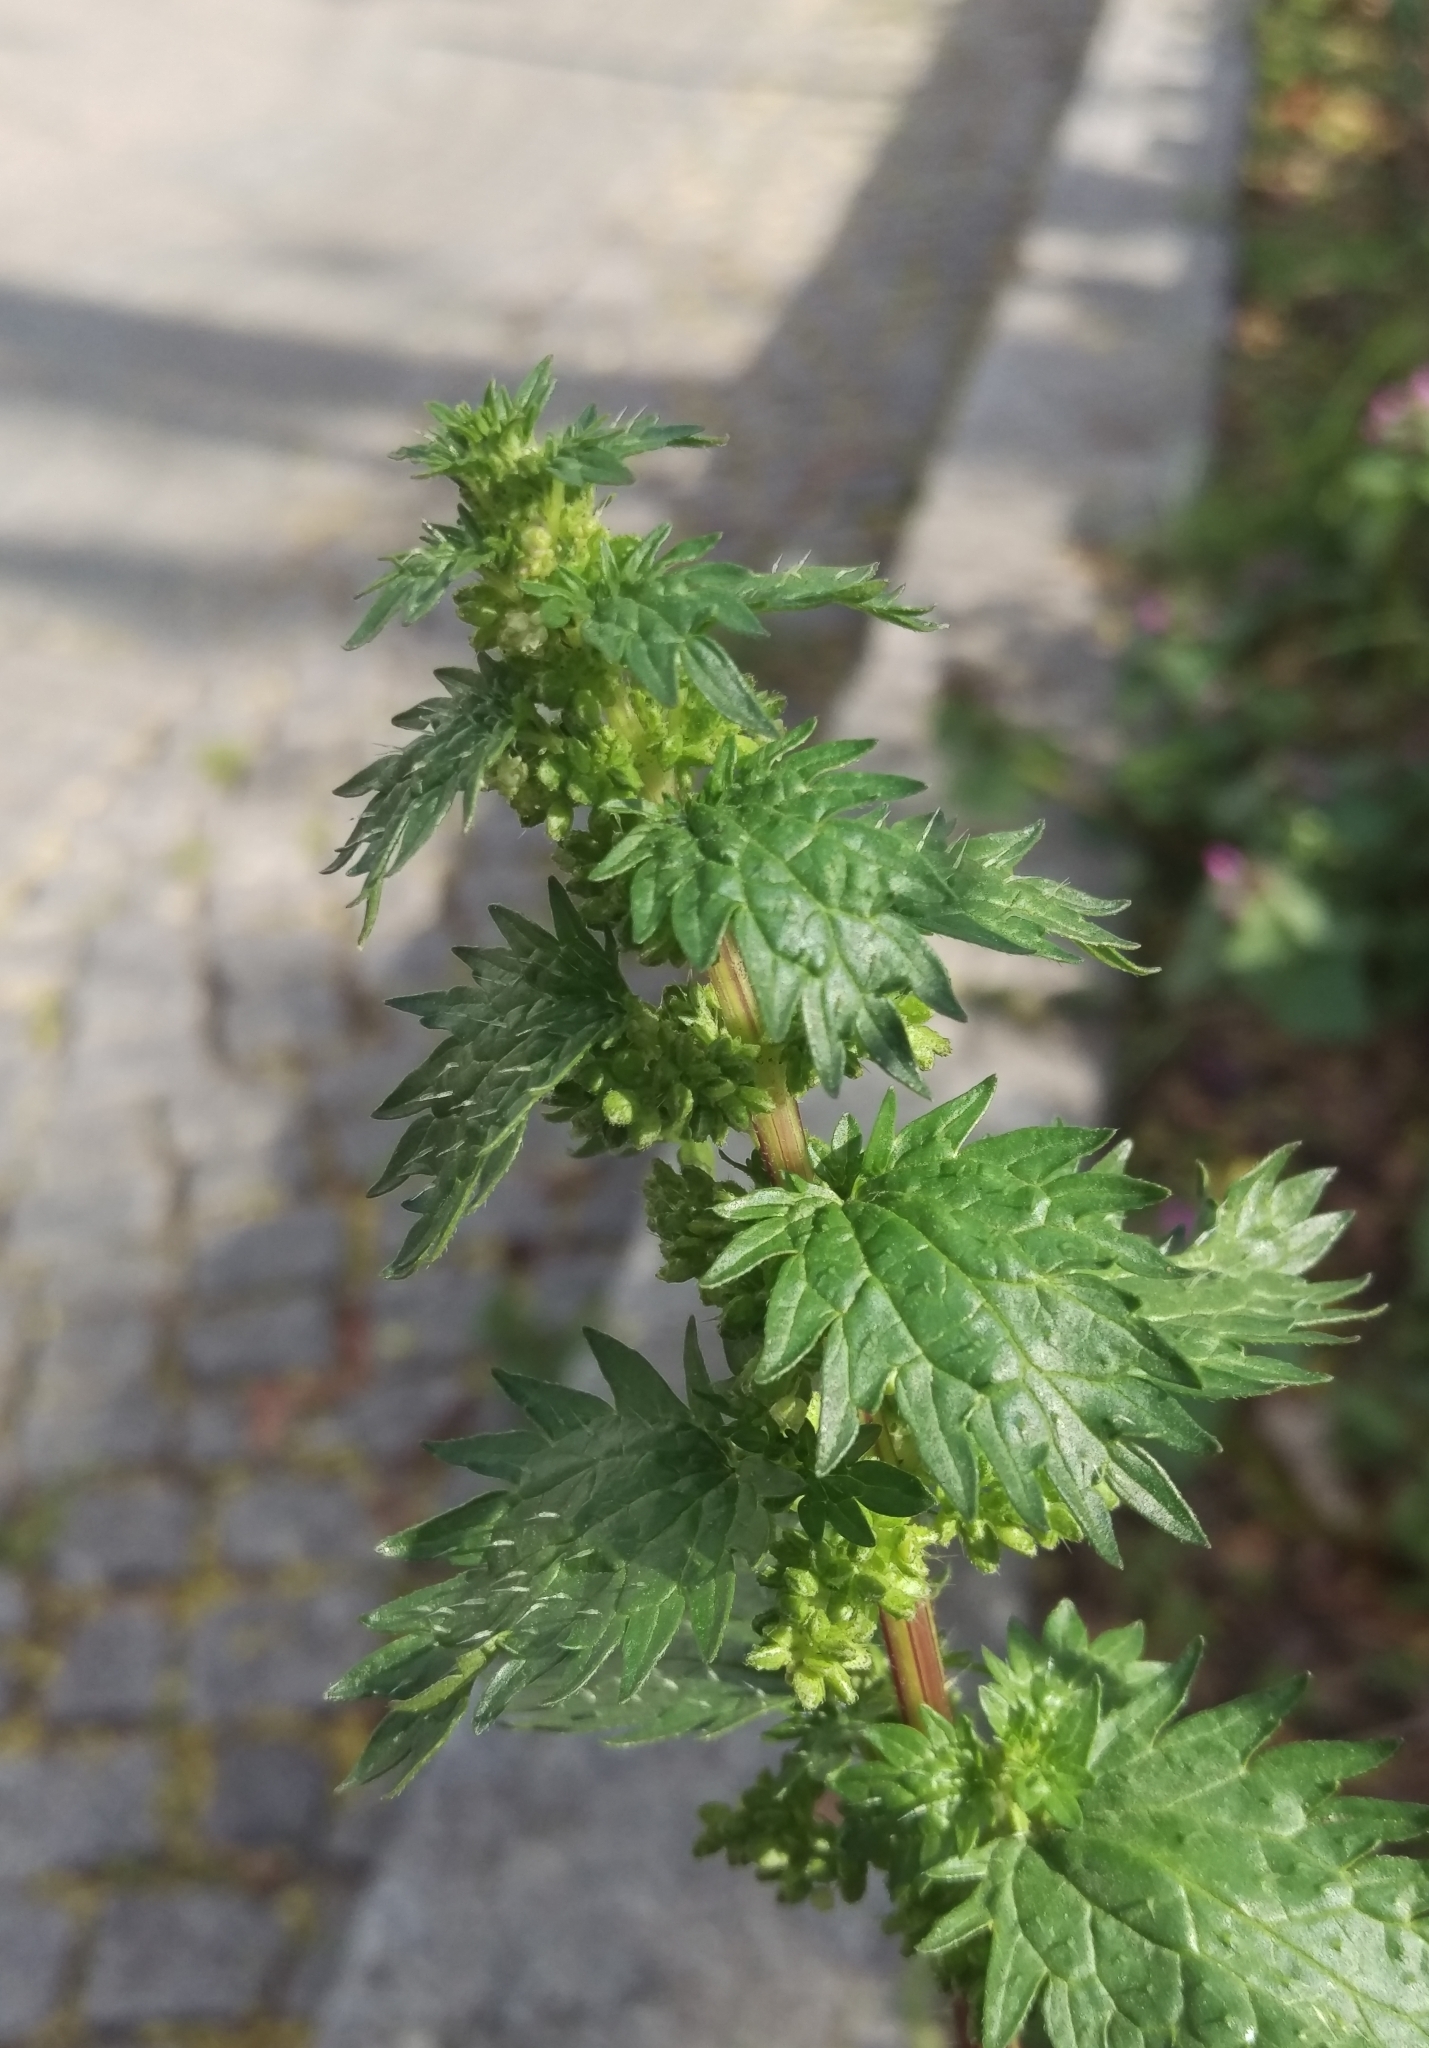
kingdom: Plantae
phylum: Tracheophyta
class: Magnoliopsida
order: Rosales
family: Urticaceae
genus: Urtica
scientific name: Urtica urens
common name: Dwarf nettle
